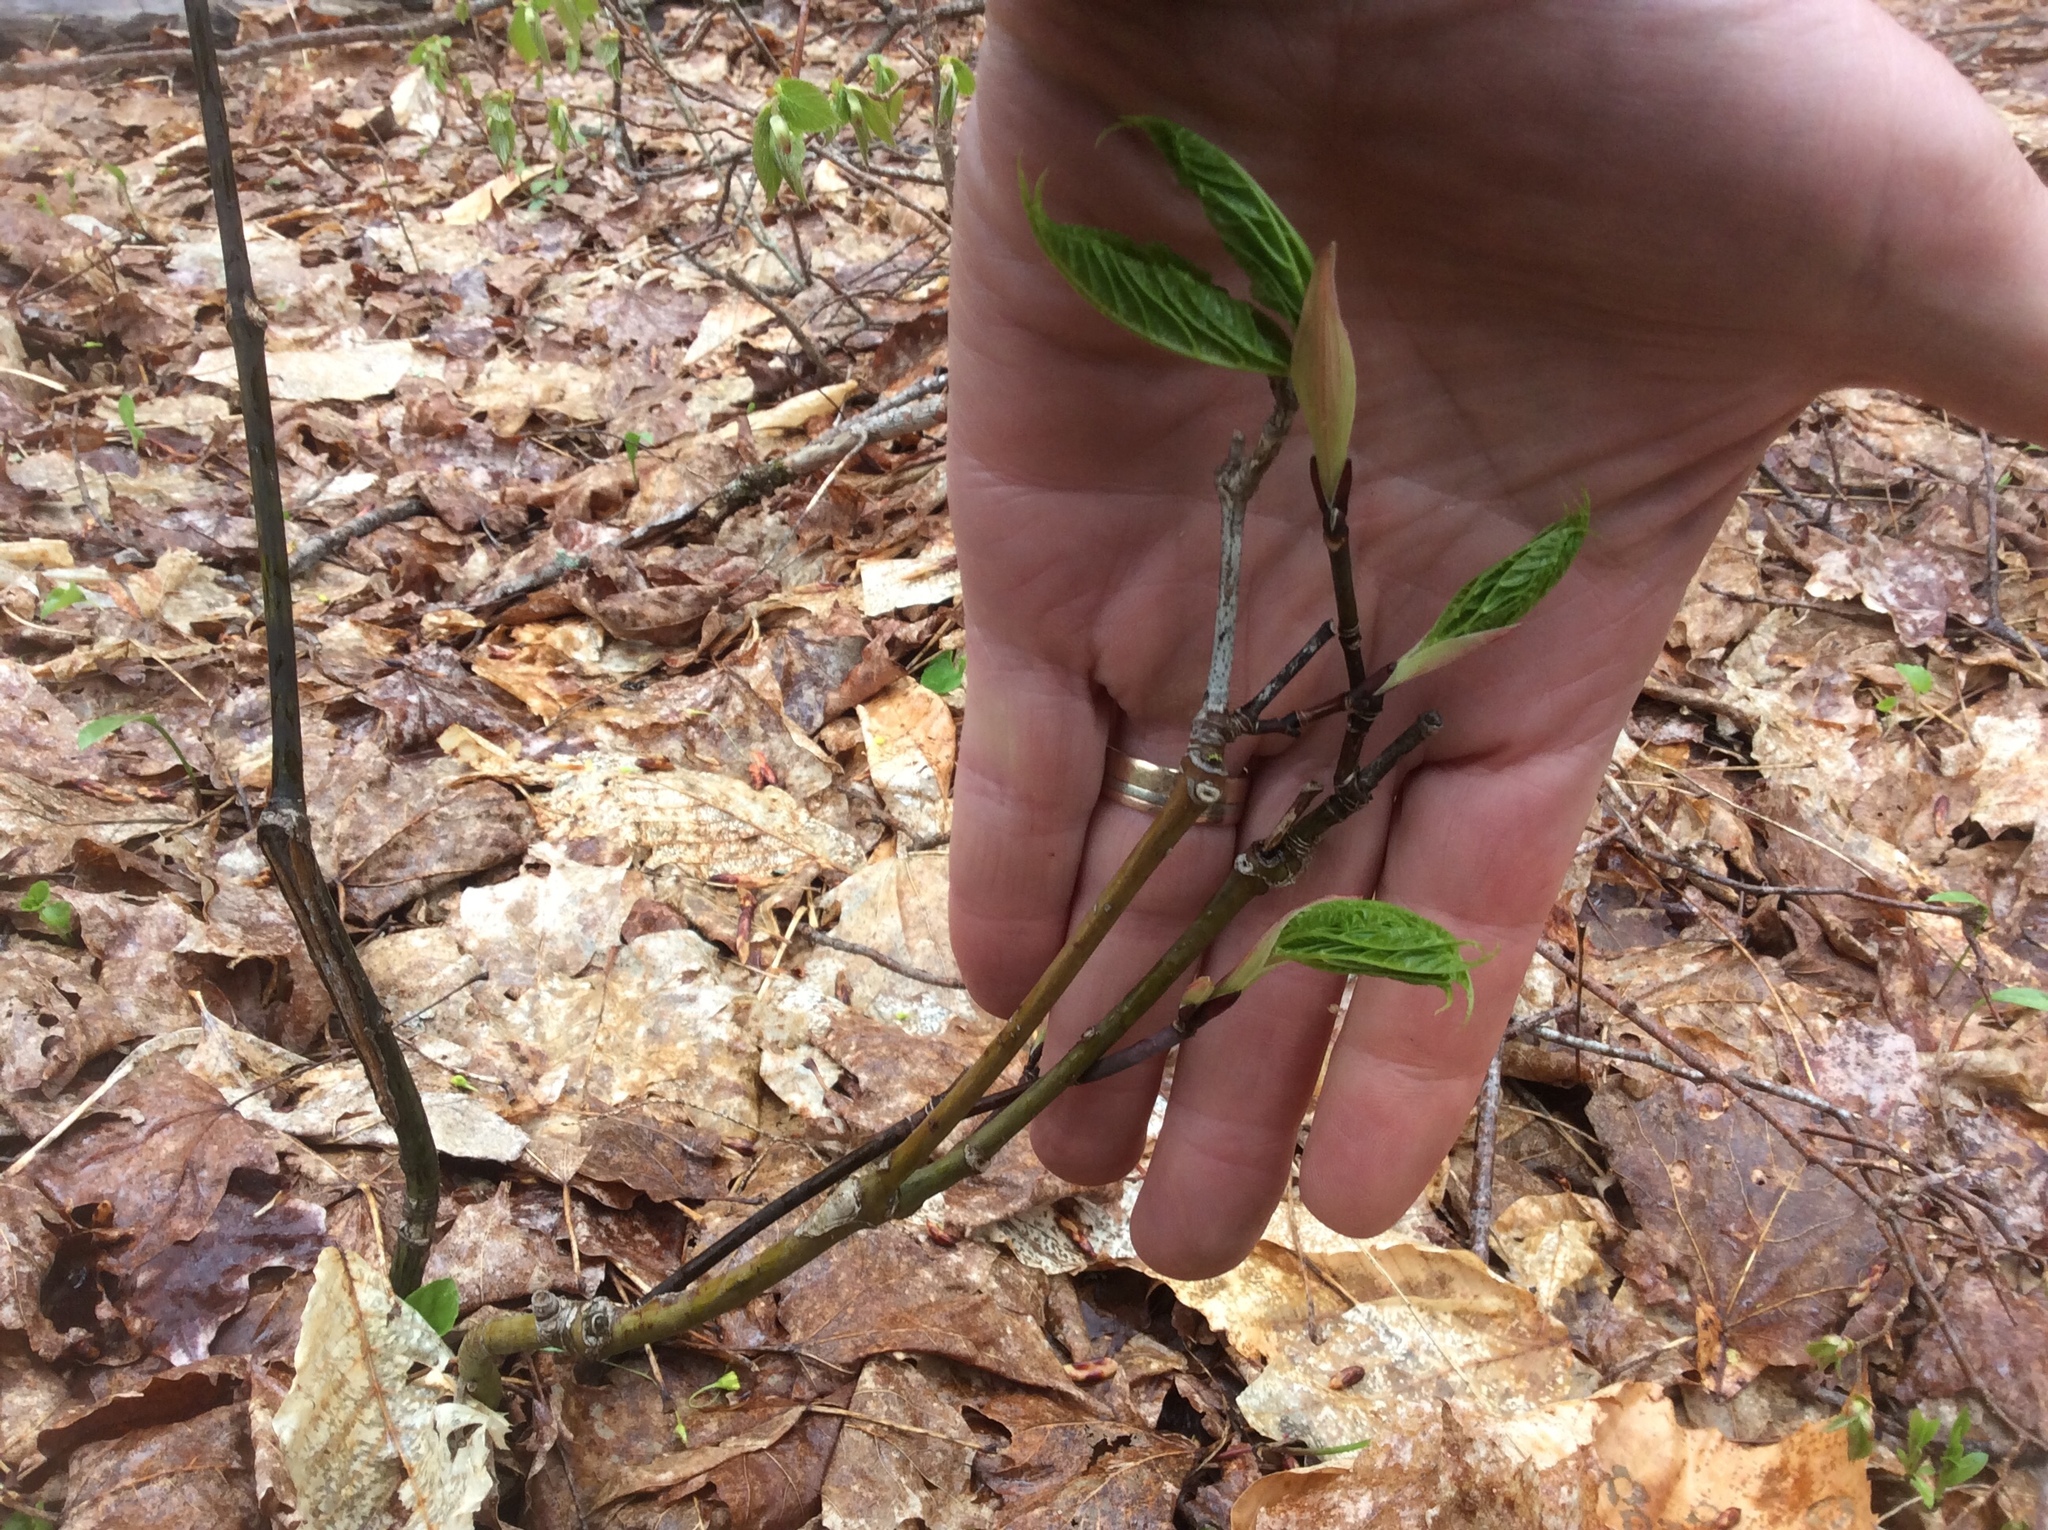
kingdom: Plantae
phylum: Tracheophyta
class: Magnoliopsida
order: Sapindales
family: Sapindaceae
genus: Acer
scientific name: Acer pensylvanicum
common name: Moosewood
